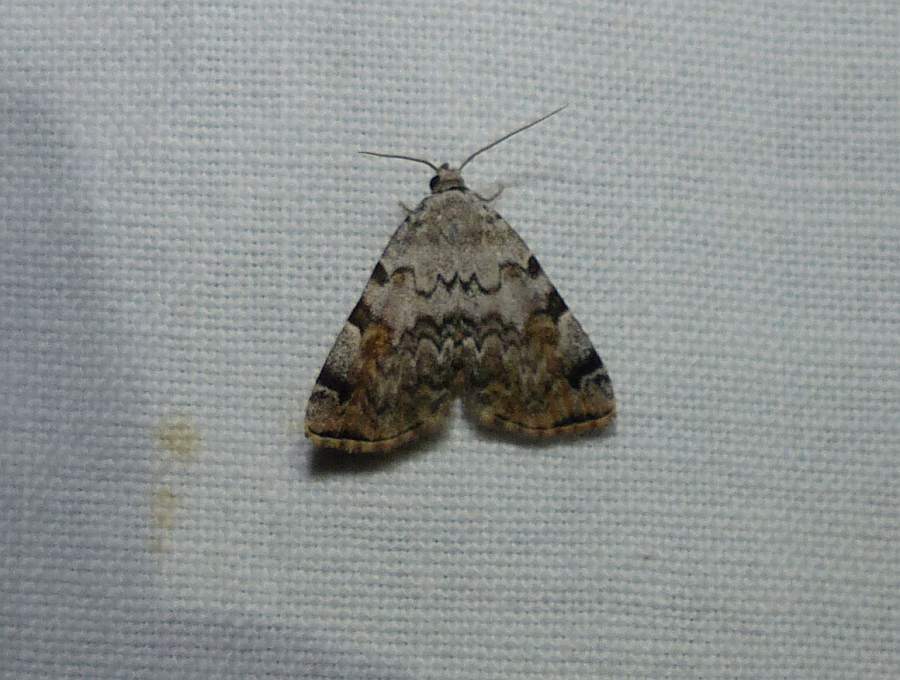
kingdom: Animalia
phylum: Arthropoda
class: Insecta
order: Lepidoptera
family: Erebidae
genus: Idia
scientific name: Idia americalis
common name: American idia moth
